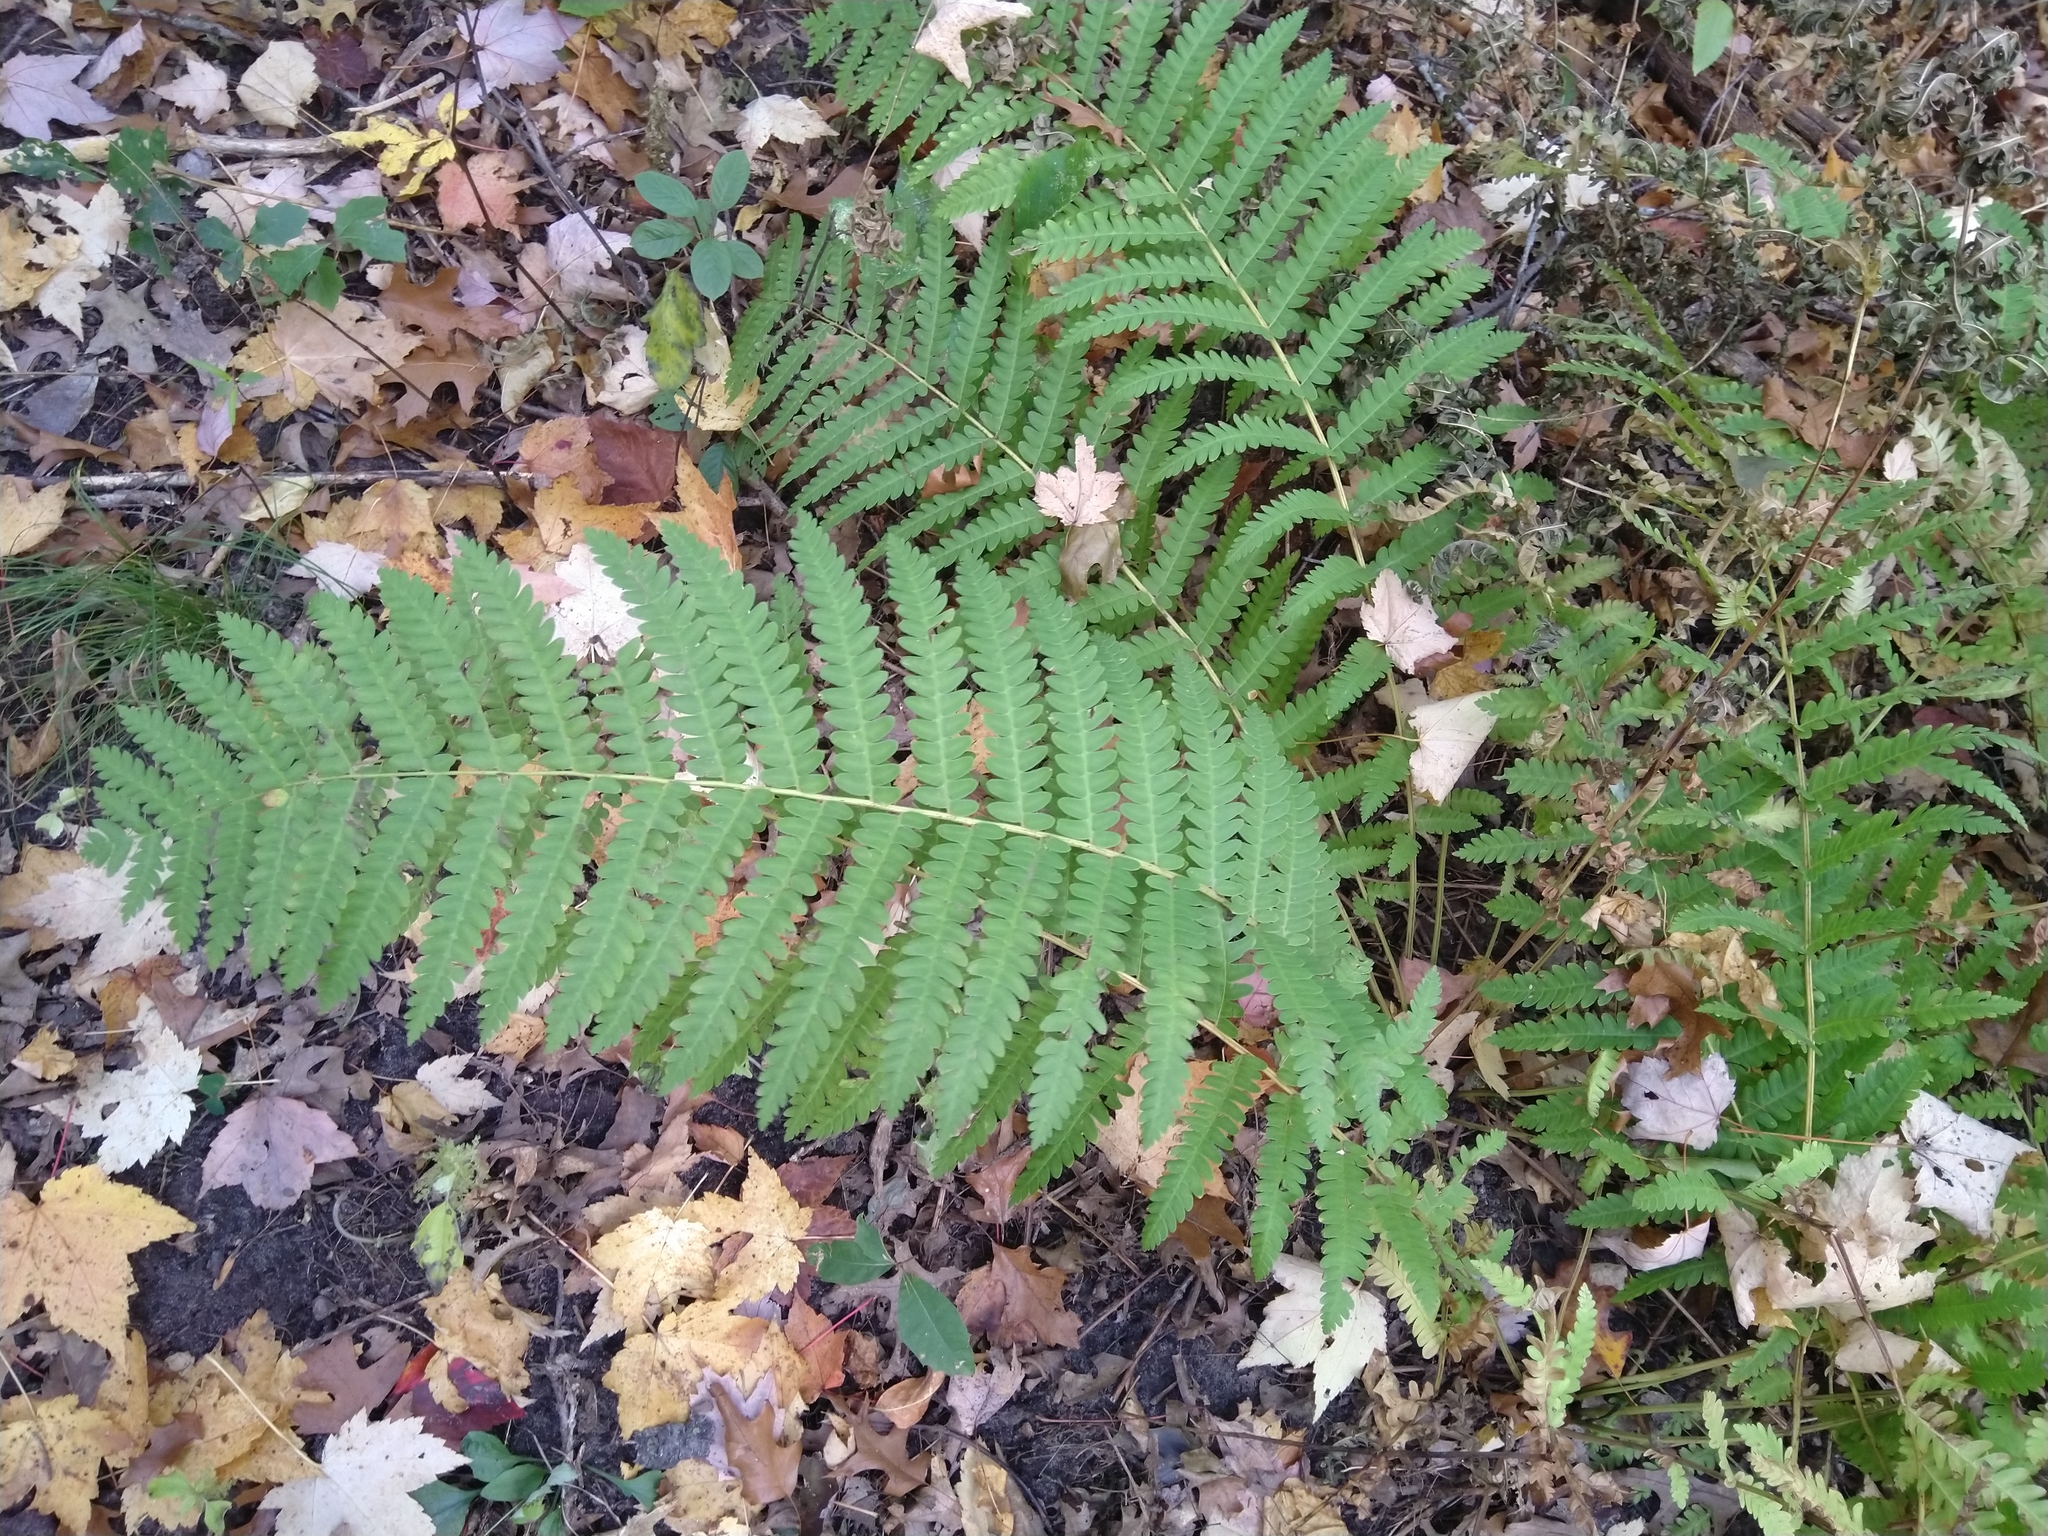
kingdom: Plantae
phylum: Tracheophyta
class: Polypodiopsida
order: Osmundales
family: Osmundaceae
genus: Osmundastrum
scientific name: Osmundastrum cinnamomeum
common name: Cinnamon fern
